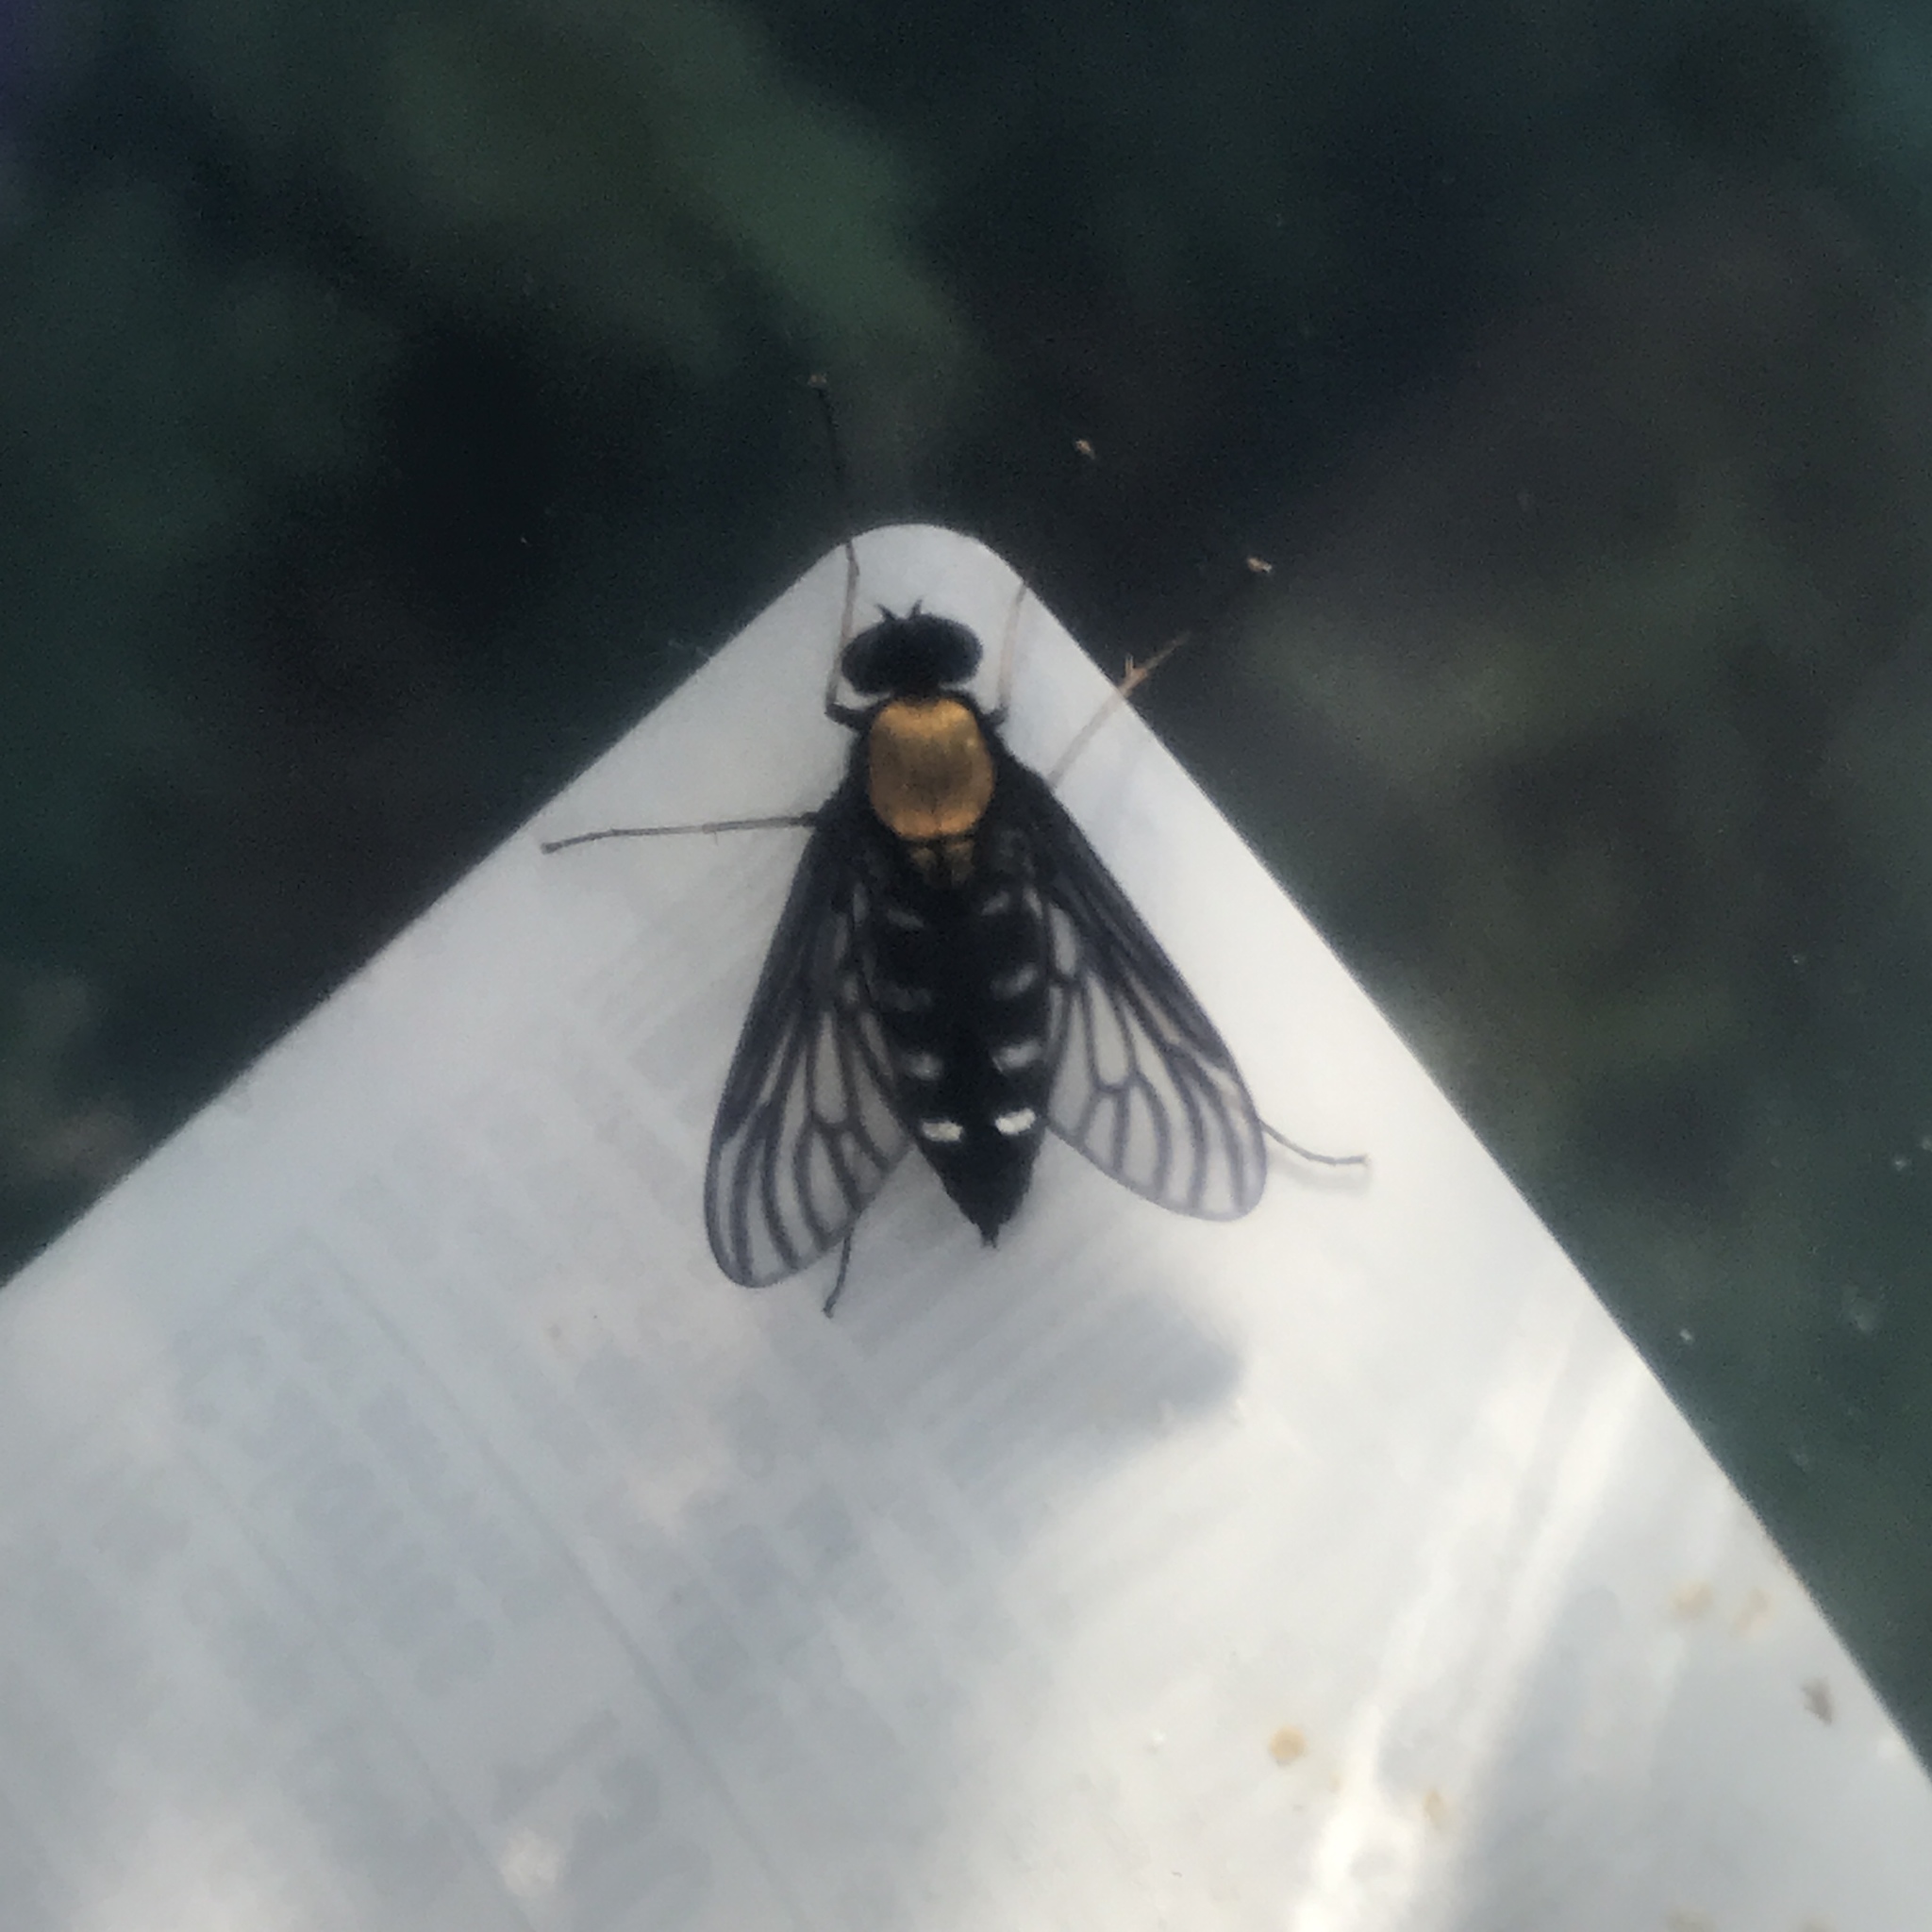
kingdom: Animalia
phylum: Arthropoda
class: Insecta
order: Diptera
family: Rhagionidae
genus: Chrysopilus
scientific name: Chrysopilus thoracicus
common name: Golden-backed snipe fly
